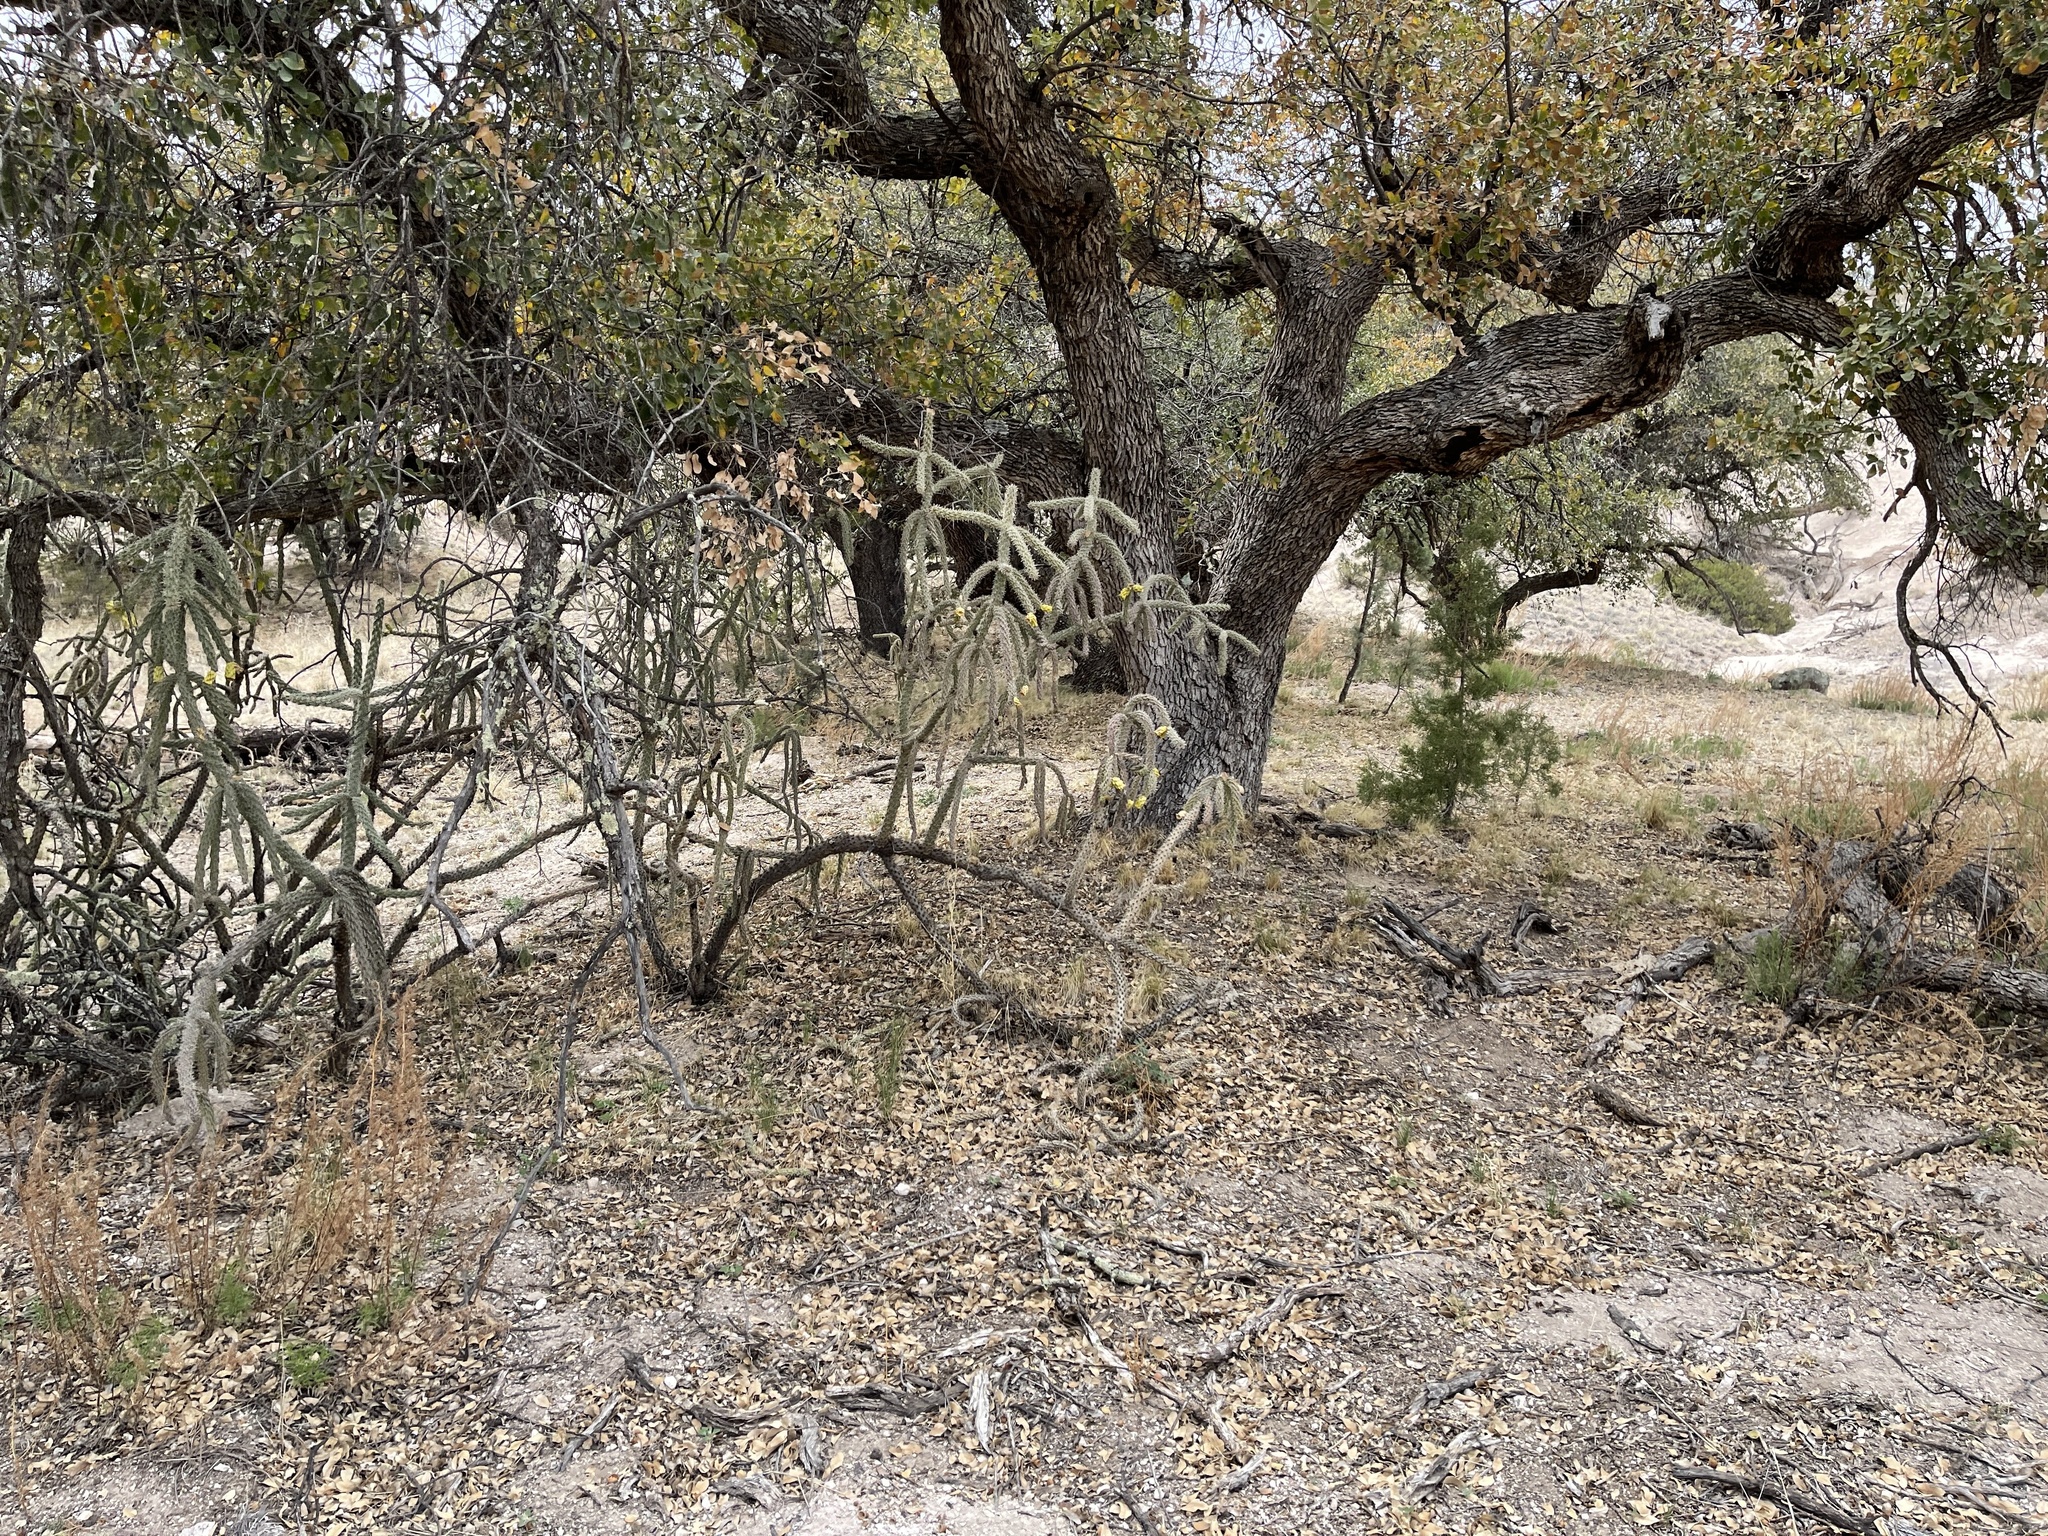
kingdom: Plantae
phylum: Tracheophyta
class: Magnoliopsida
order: Fagales
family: Fagaceae
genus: Quercus
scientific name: Quercus arizonica
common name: Arizona white oak
